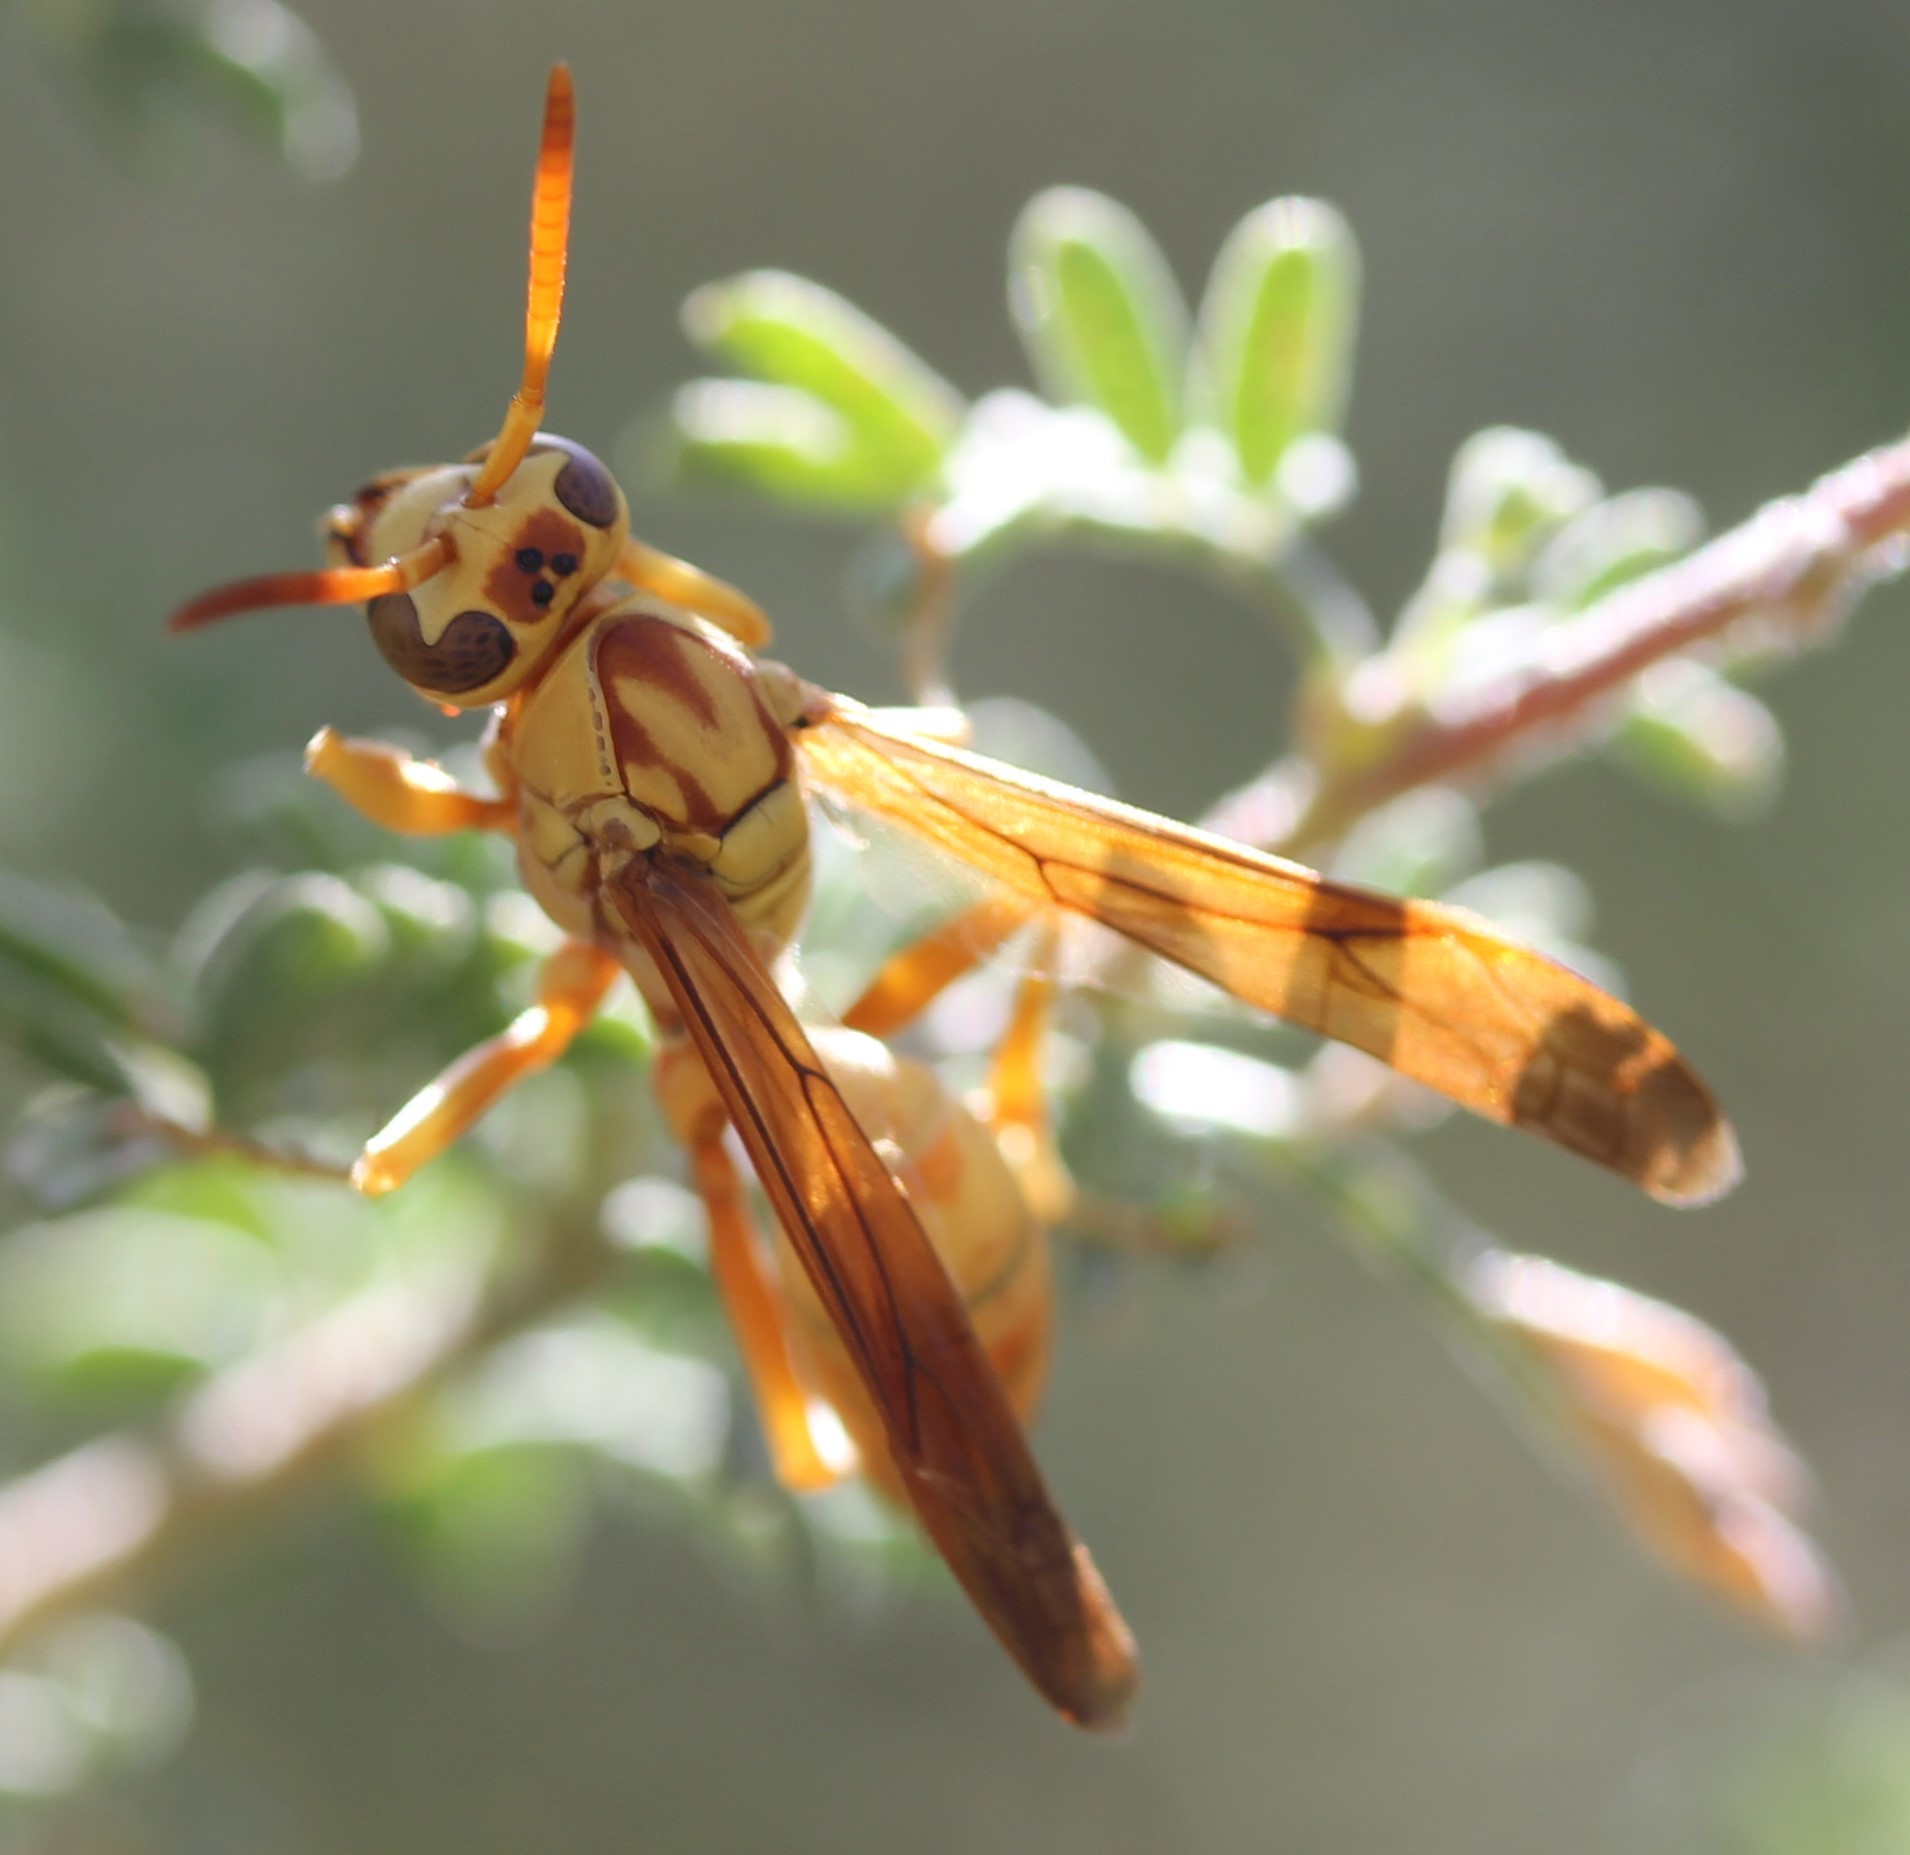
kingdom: Animalia
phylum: Arthropoda
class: Insecta
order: Hymenoptera
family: Eumenidae
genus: Polistes
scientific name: Polistes aurifer
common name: Paper wasp
